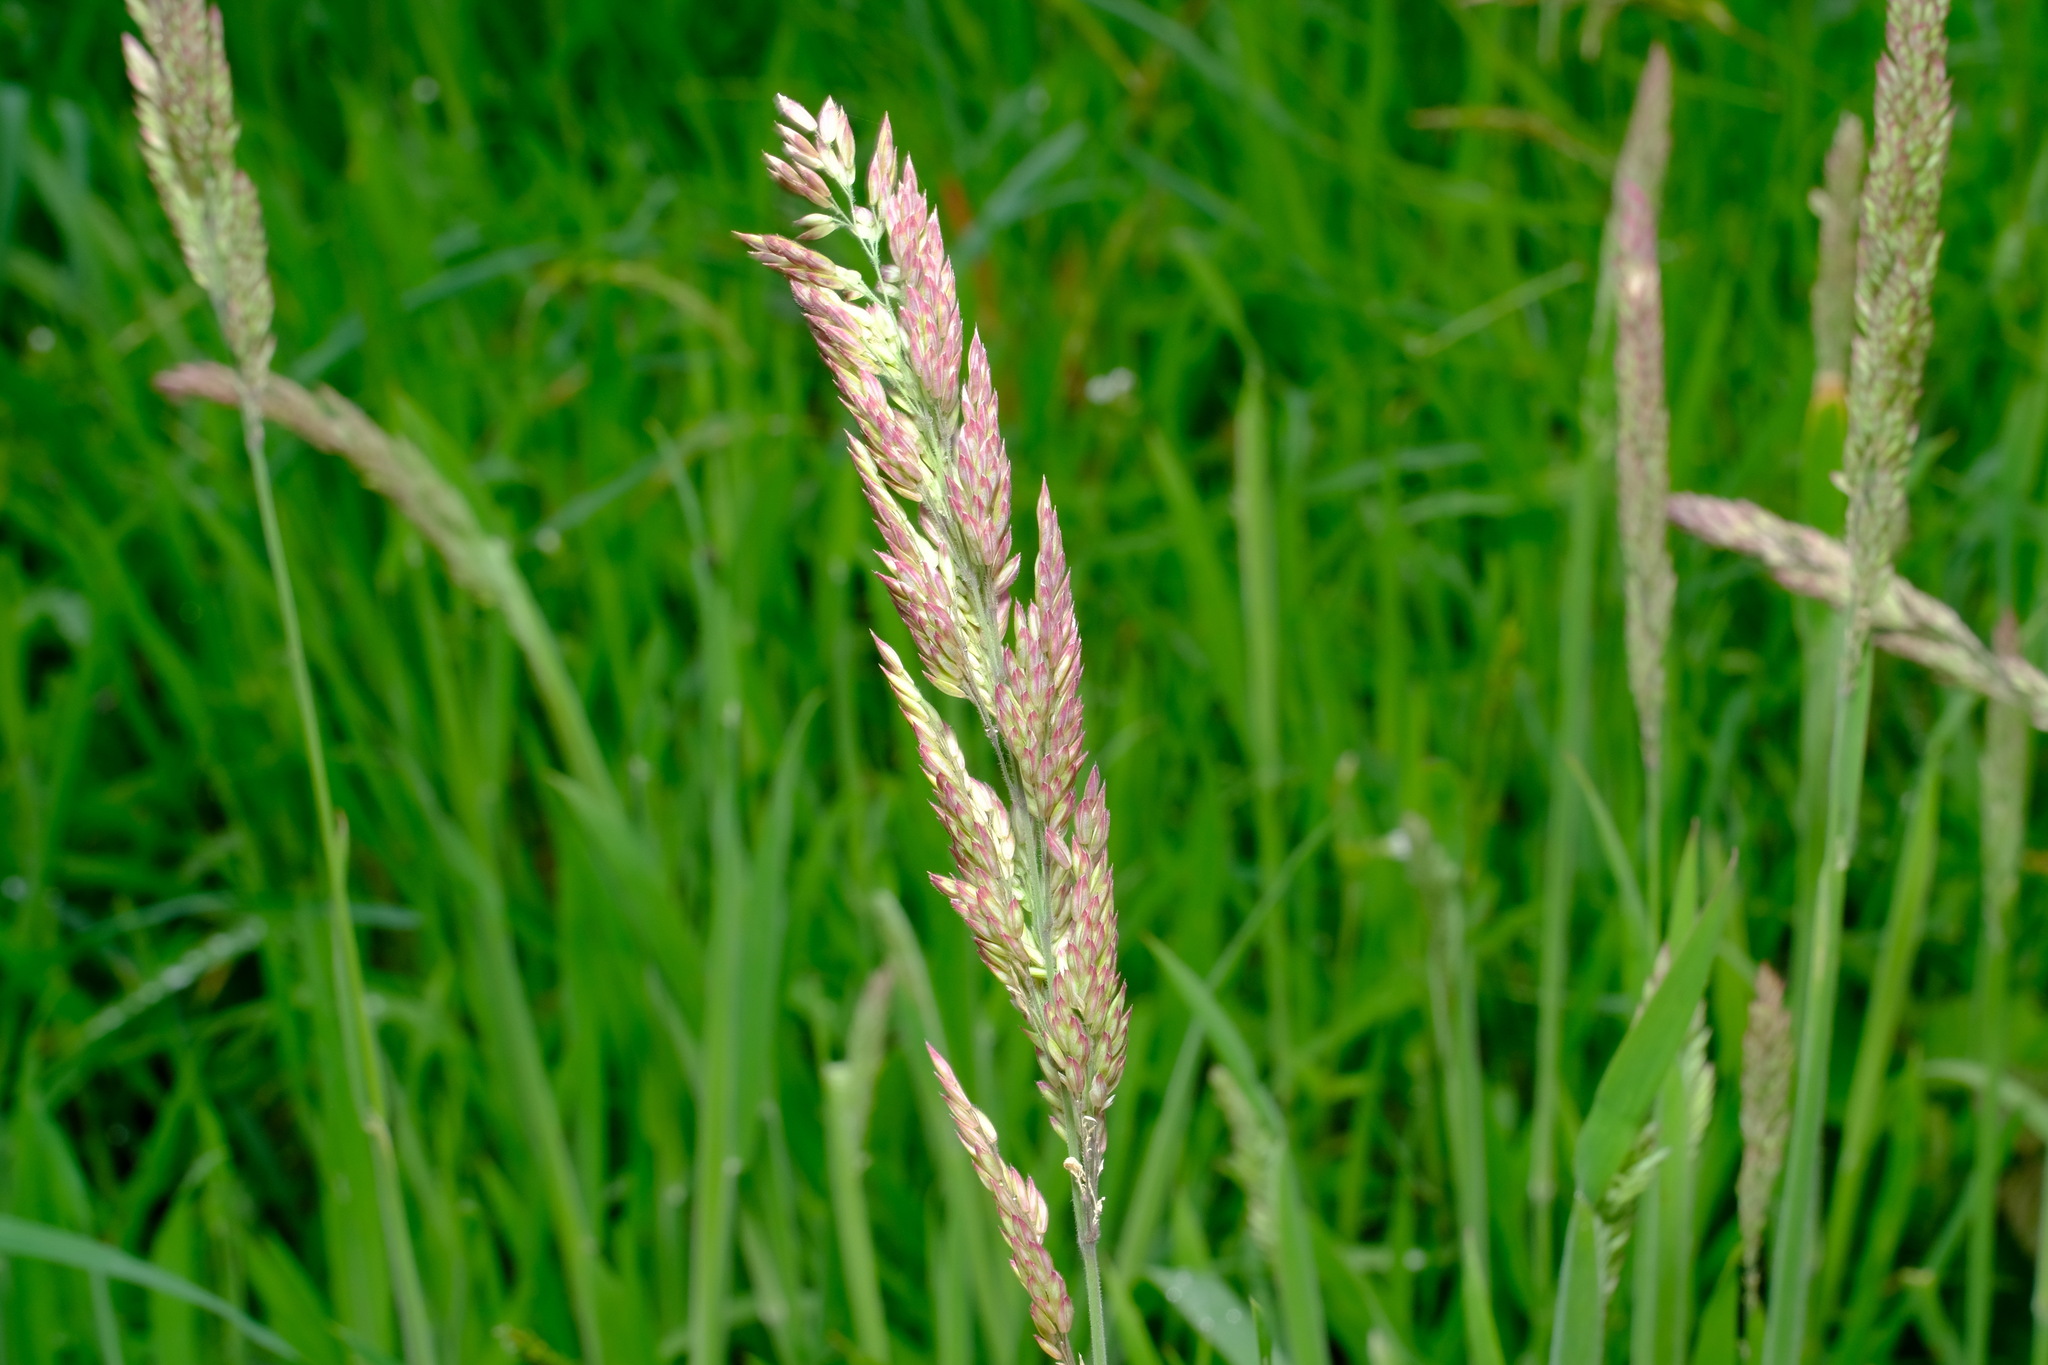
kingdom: Plantae
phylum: Tracheophyta
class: Liliopsida
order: Poales
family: Poaceae
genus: Holcus
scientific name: Holcus lanatus
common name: Yorkshire-fog
